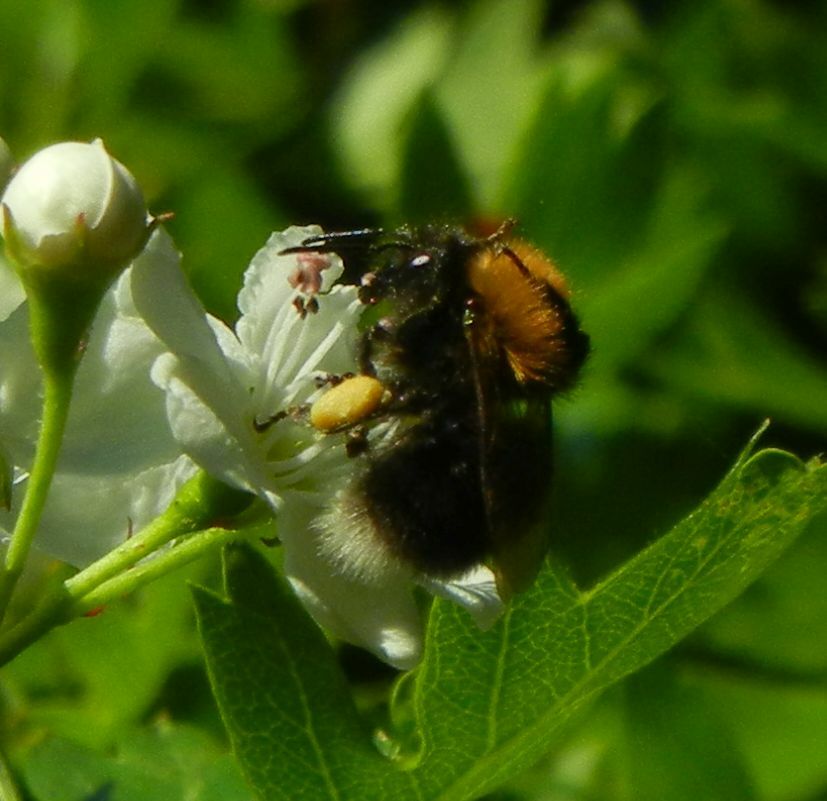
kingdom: Animalia
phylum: Arthropoda
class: Insecta
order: Hymenoptera
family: Apidae
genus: Bombus
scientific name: Bombus hypnorum
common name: New garden bumblebee
